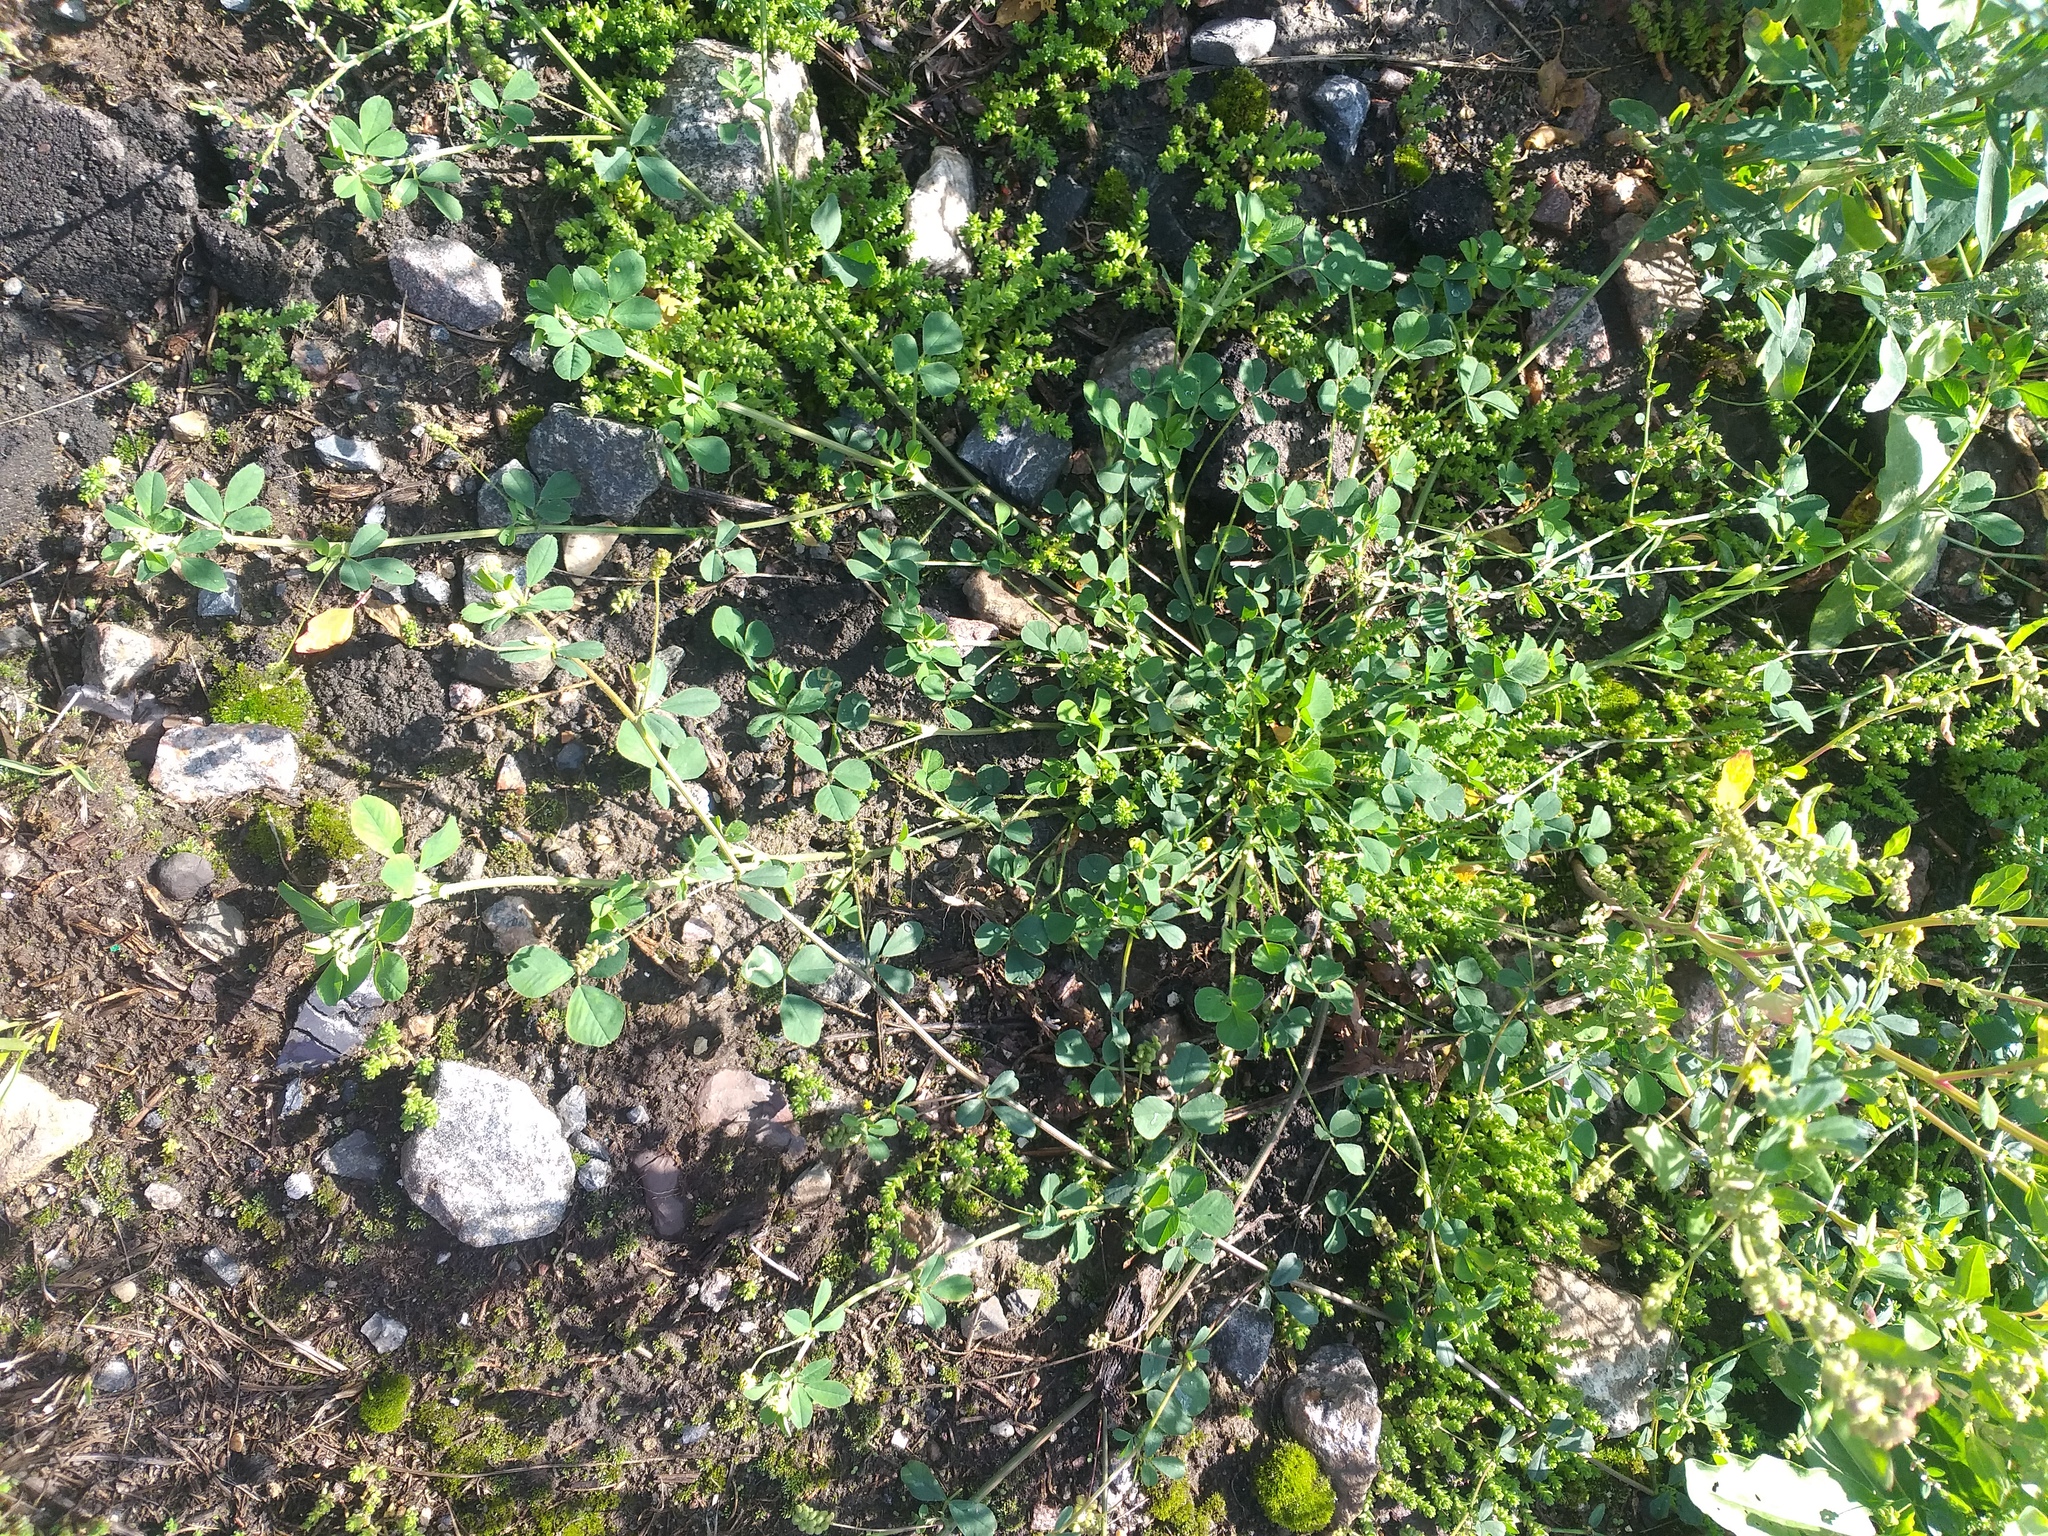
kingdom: Plantae
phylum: Tracheophyta
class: Magnoliopsida
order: Fabales
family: Fabaceae
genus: Medicago
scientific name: Medicago lupulina
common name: Black medick
